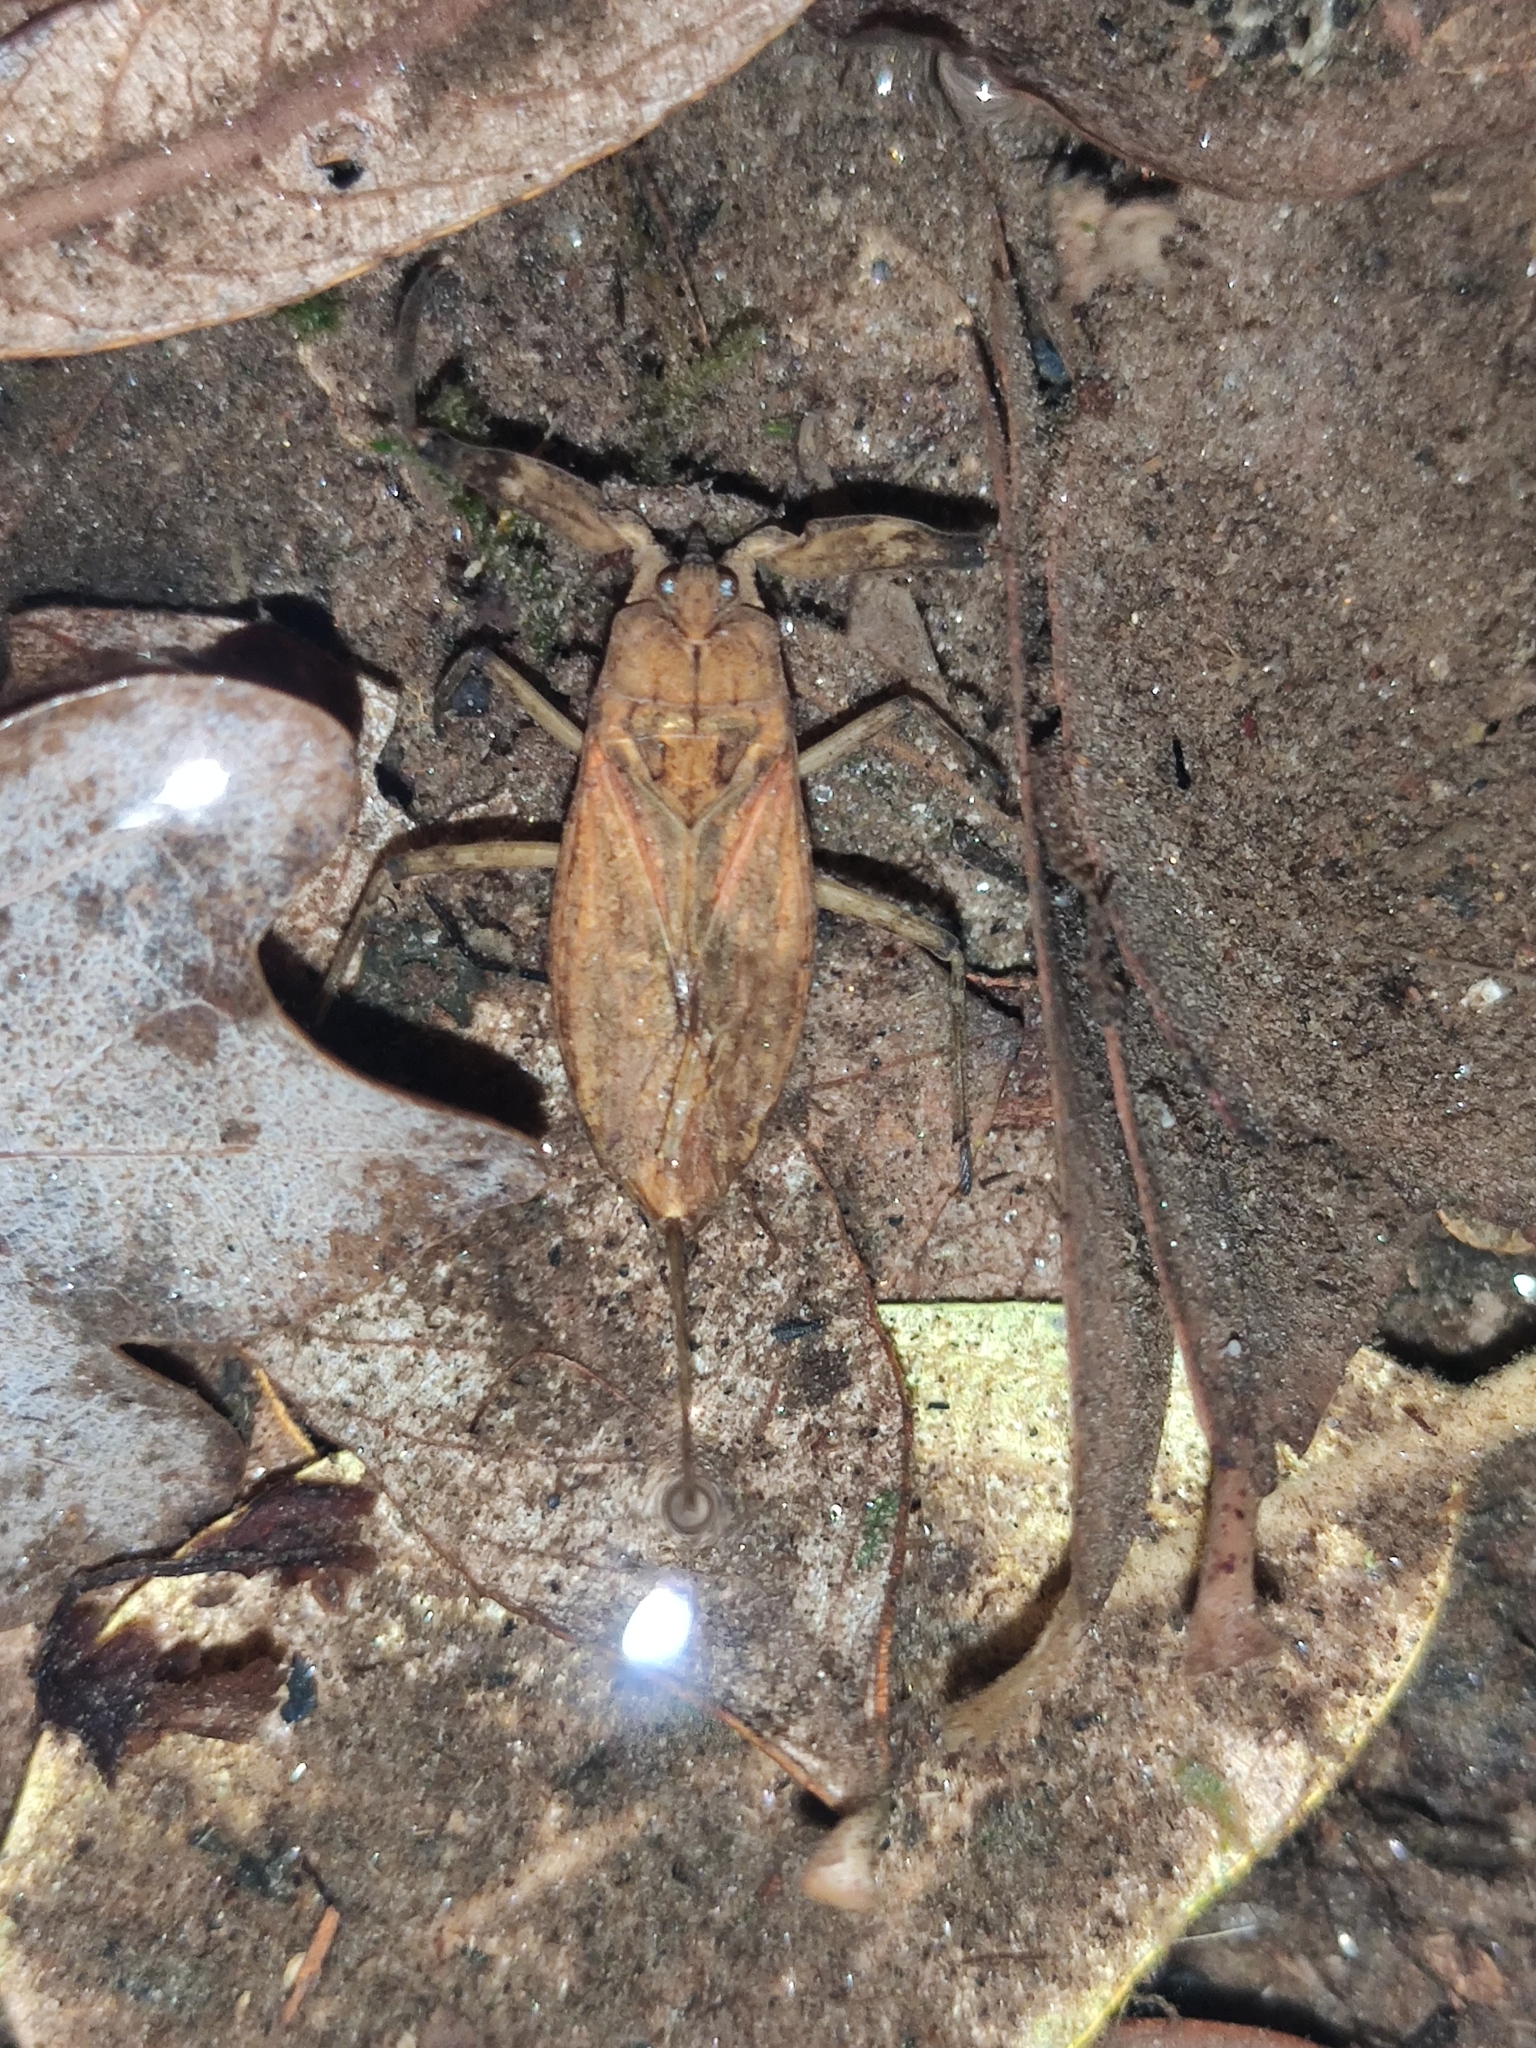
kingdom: Animalia
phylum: Arthropoda
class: Insecta
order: Hemiptera
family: Nepidae
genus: Nepa
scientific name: Nepa cinerea
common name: Water scorpion
